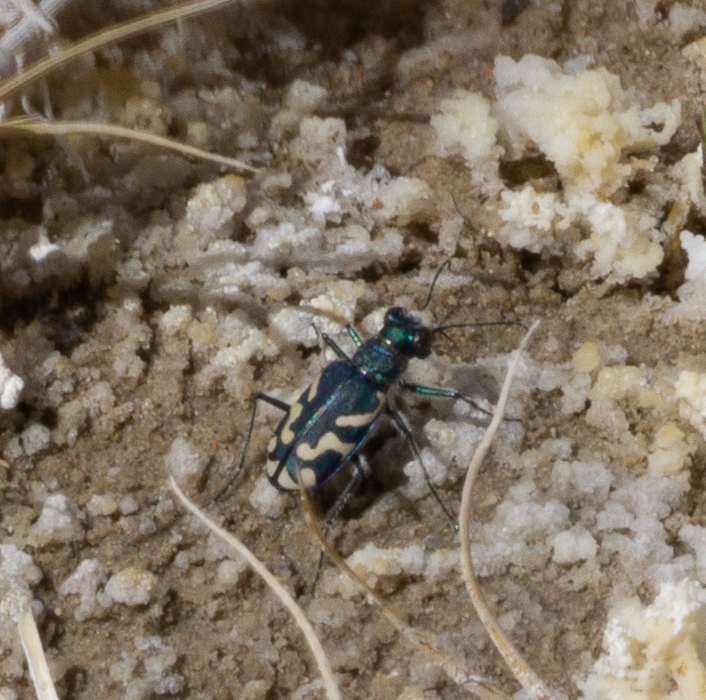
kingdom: Animalia
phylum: Arthropoda
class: Insecta
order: Coleoptera
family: Carabidae
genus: Cicindela
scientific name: Cicindela tranquebarica
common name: Oblique-lined tiger beetle
